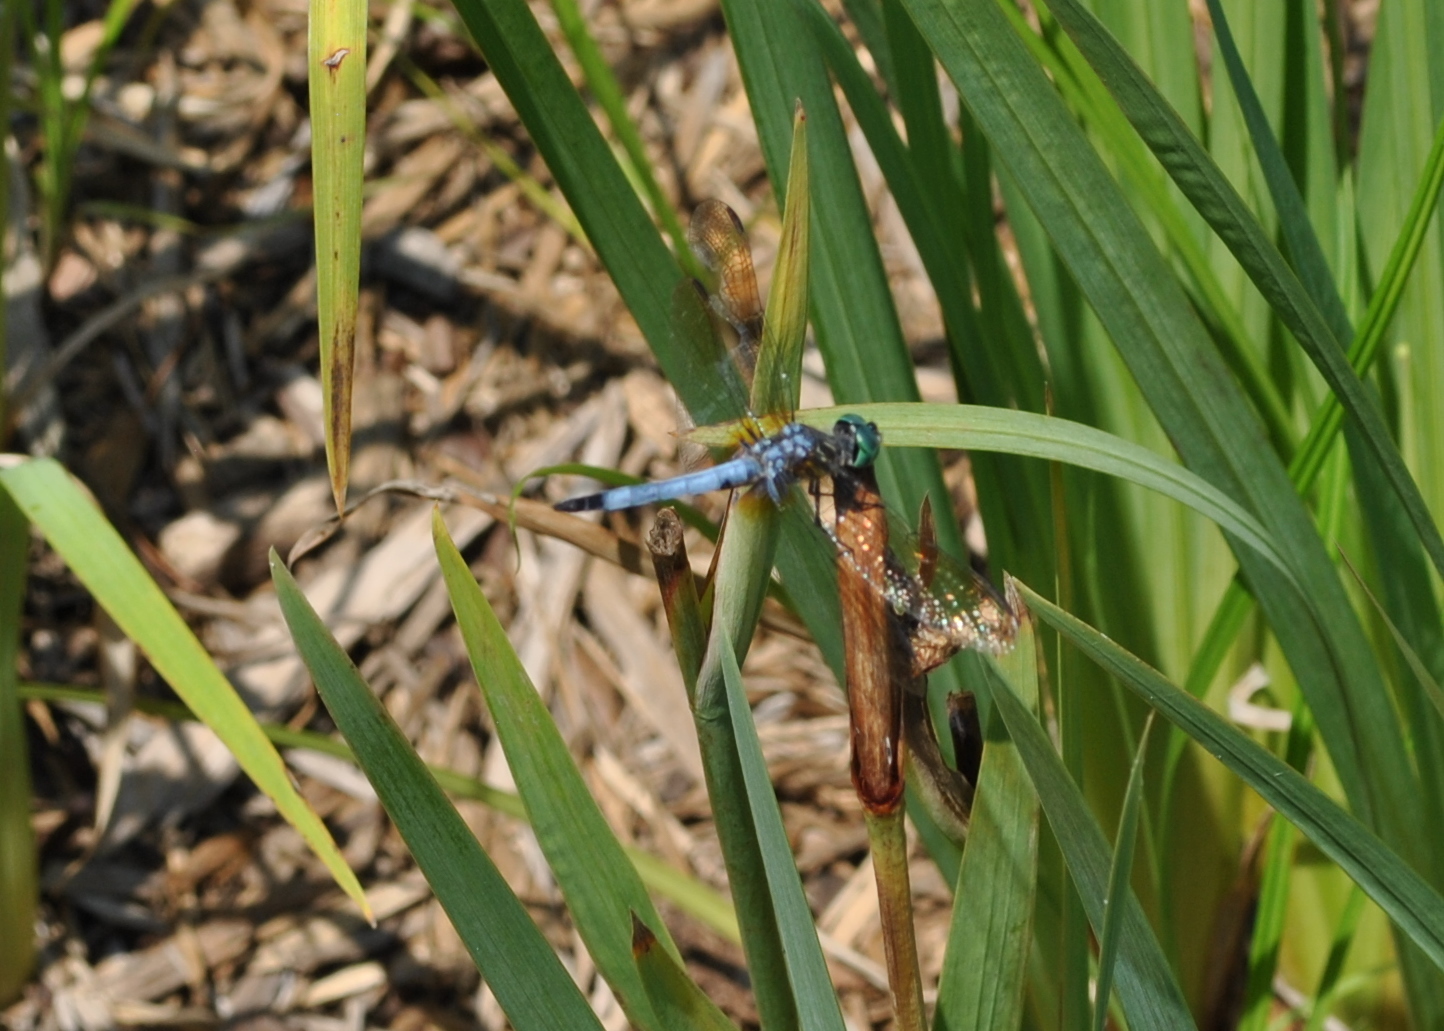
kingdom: Animalia
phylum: Arthropoda
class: Insecta
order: Odonata
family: Libellulidae
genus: Pachydiplax
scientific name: Pachydiplax longipennis
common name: Blue dasher
